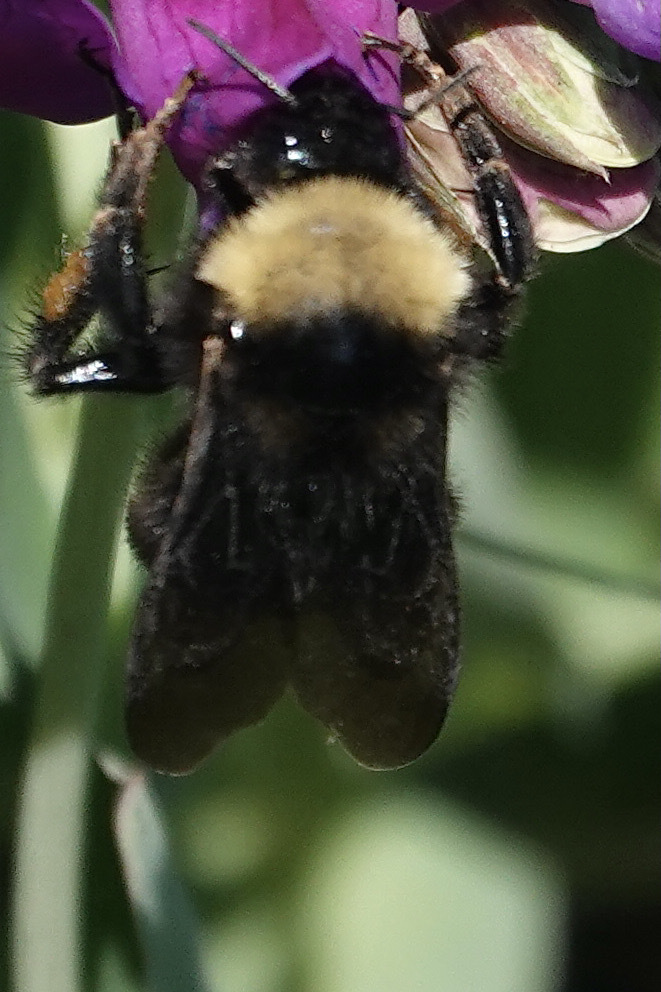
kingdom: Animalia
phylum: Arthropoda
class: Insecta
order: Hymenoptera
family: Apidae
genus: Bombus
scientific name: Bombus californicus
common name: California bumble bee
